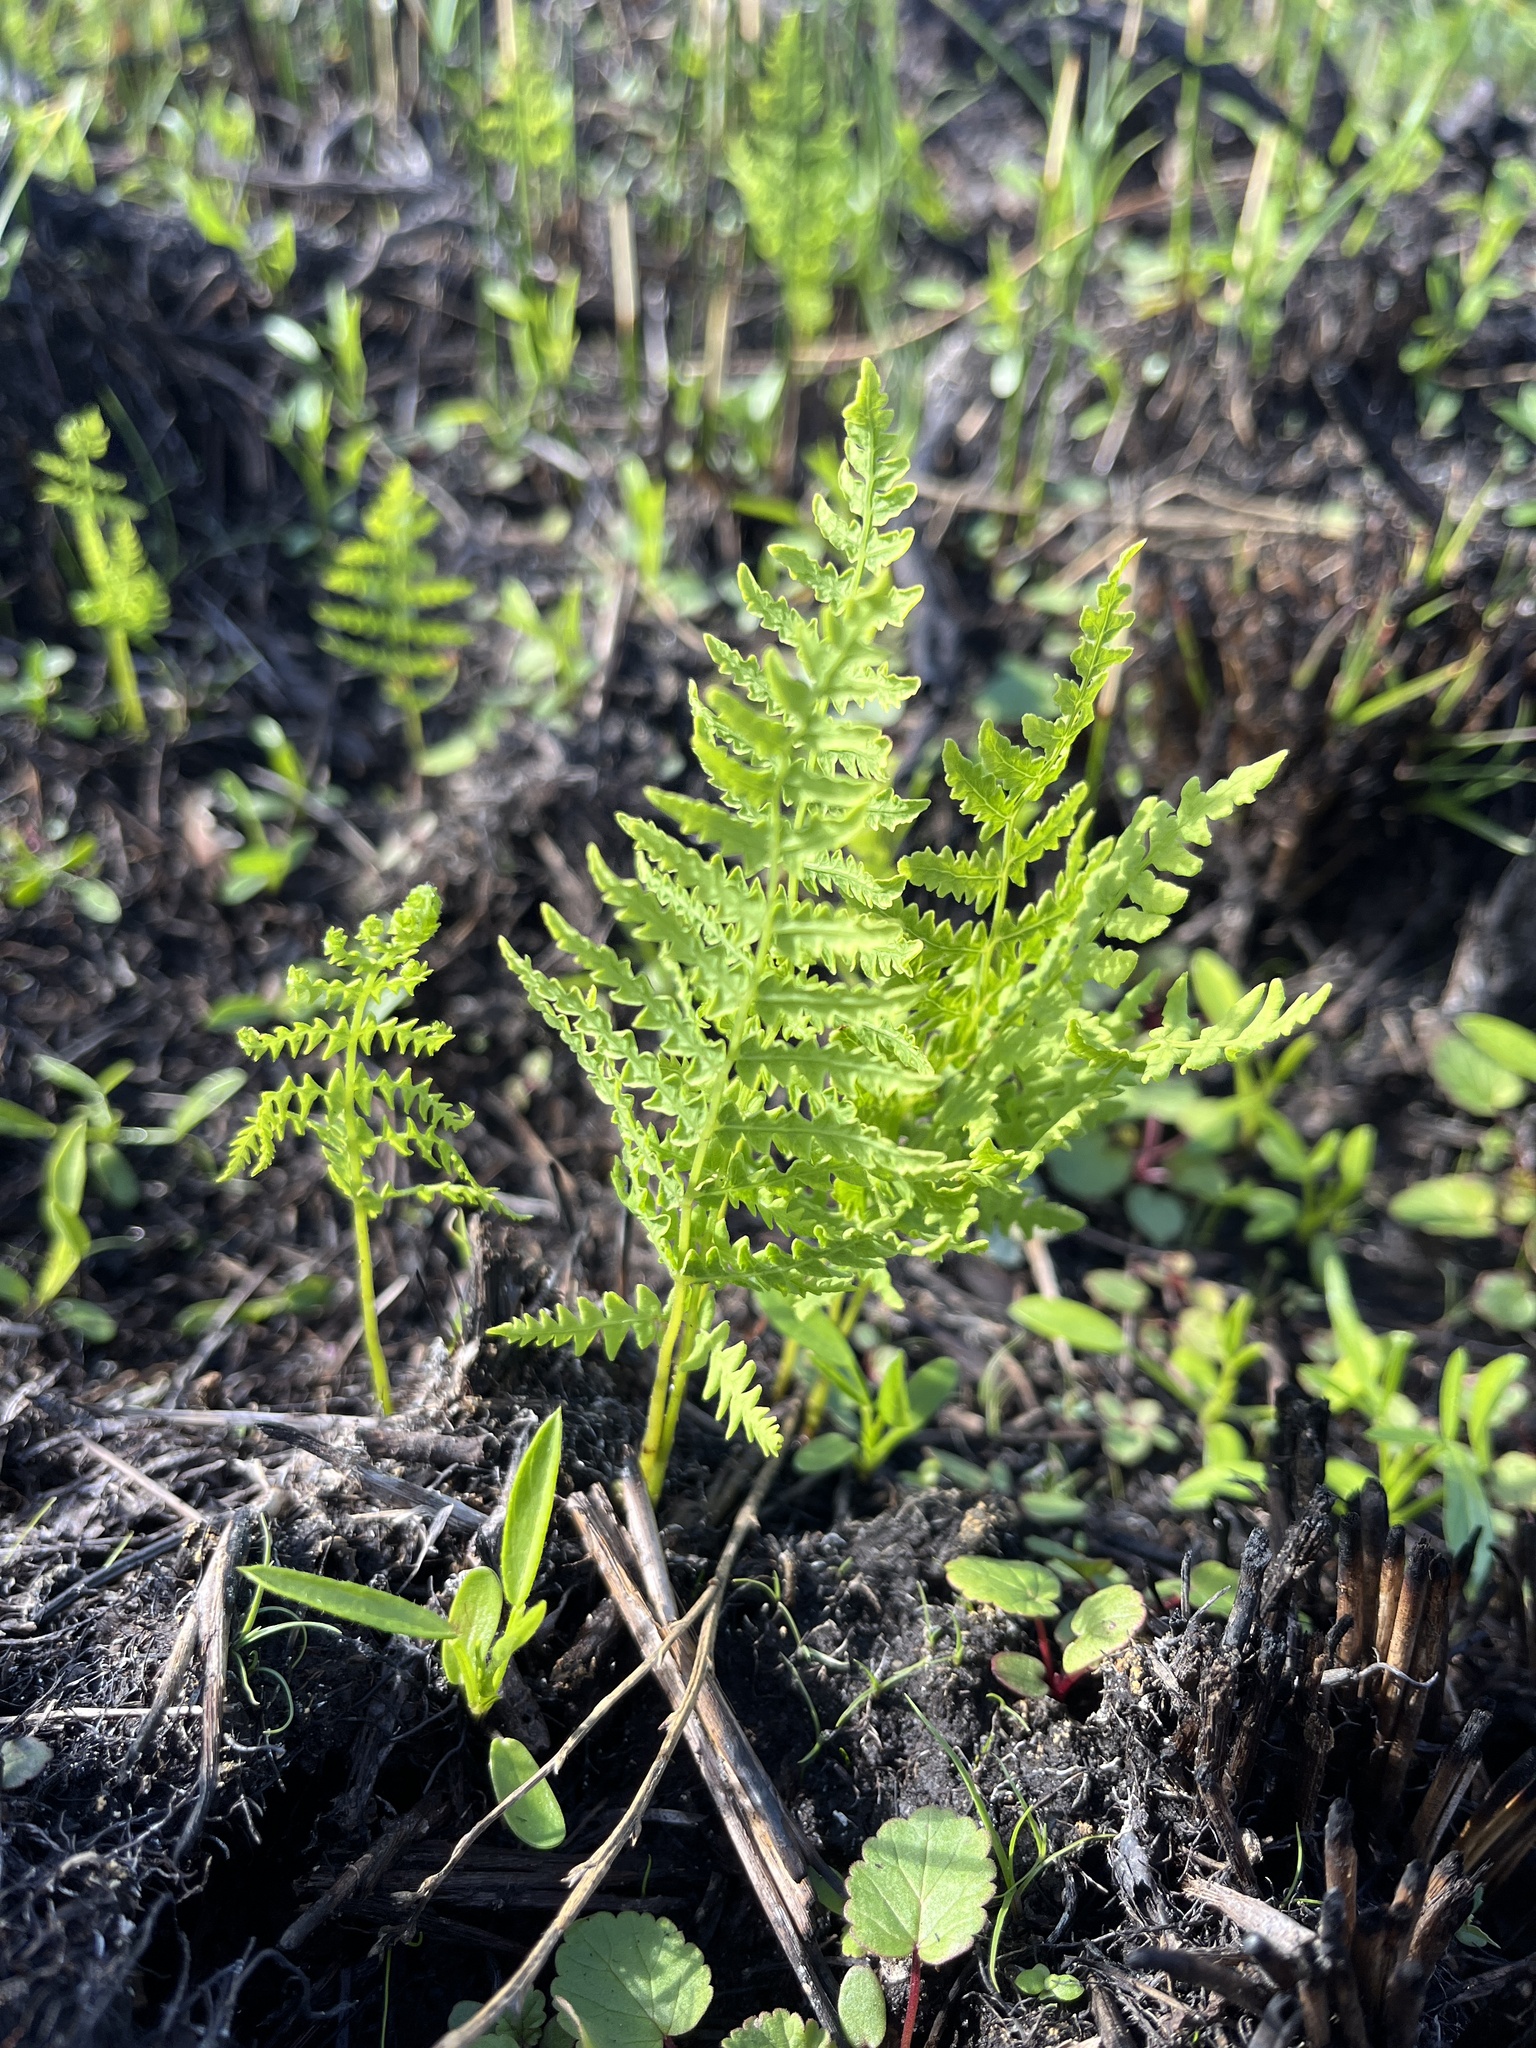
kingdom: Plantae
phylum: Tracheophyta
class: Polypodiopsida
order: Polypodiales
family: Thelypteridaceae
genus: Thelypteris
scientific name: Thelypteris confluens
